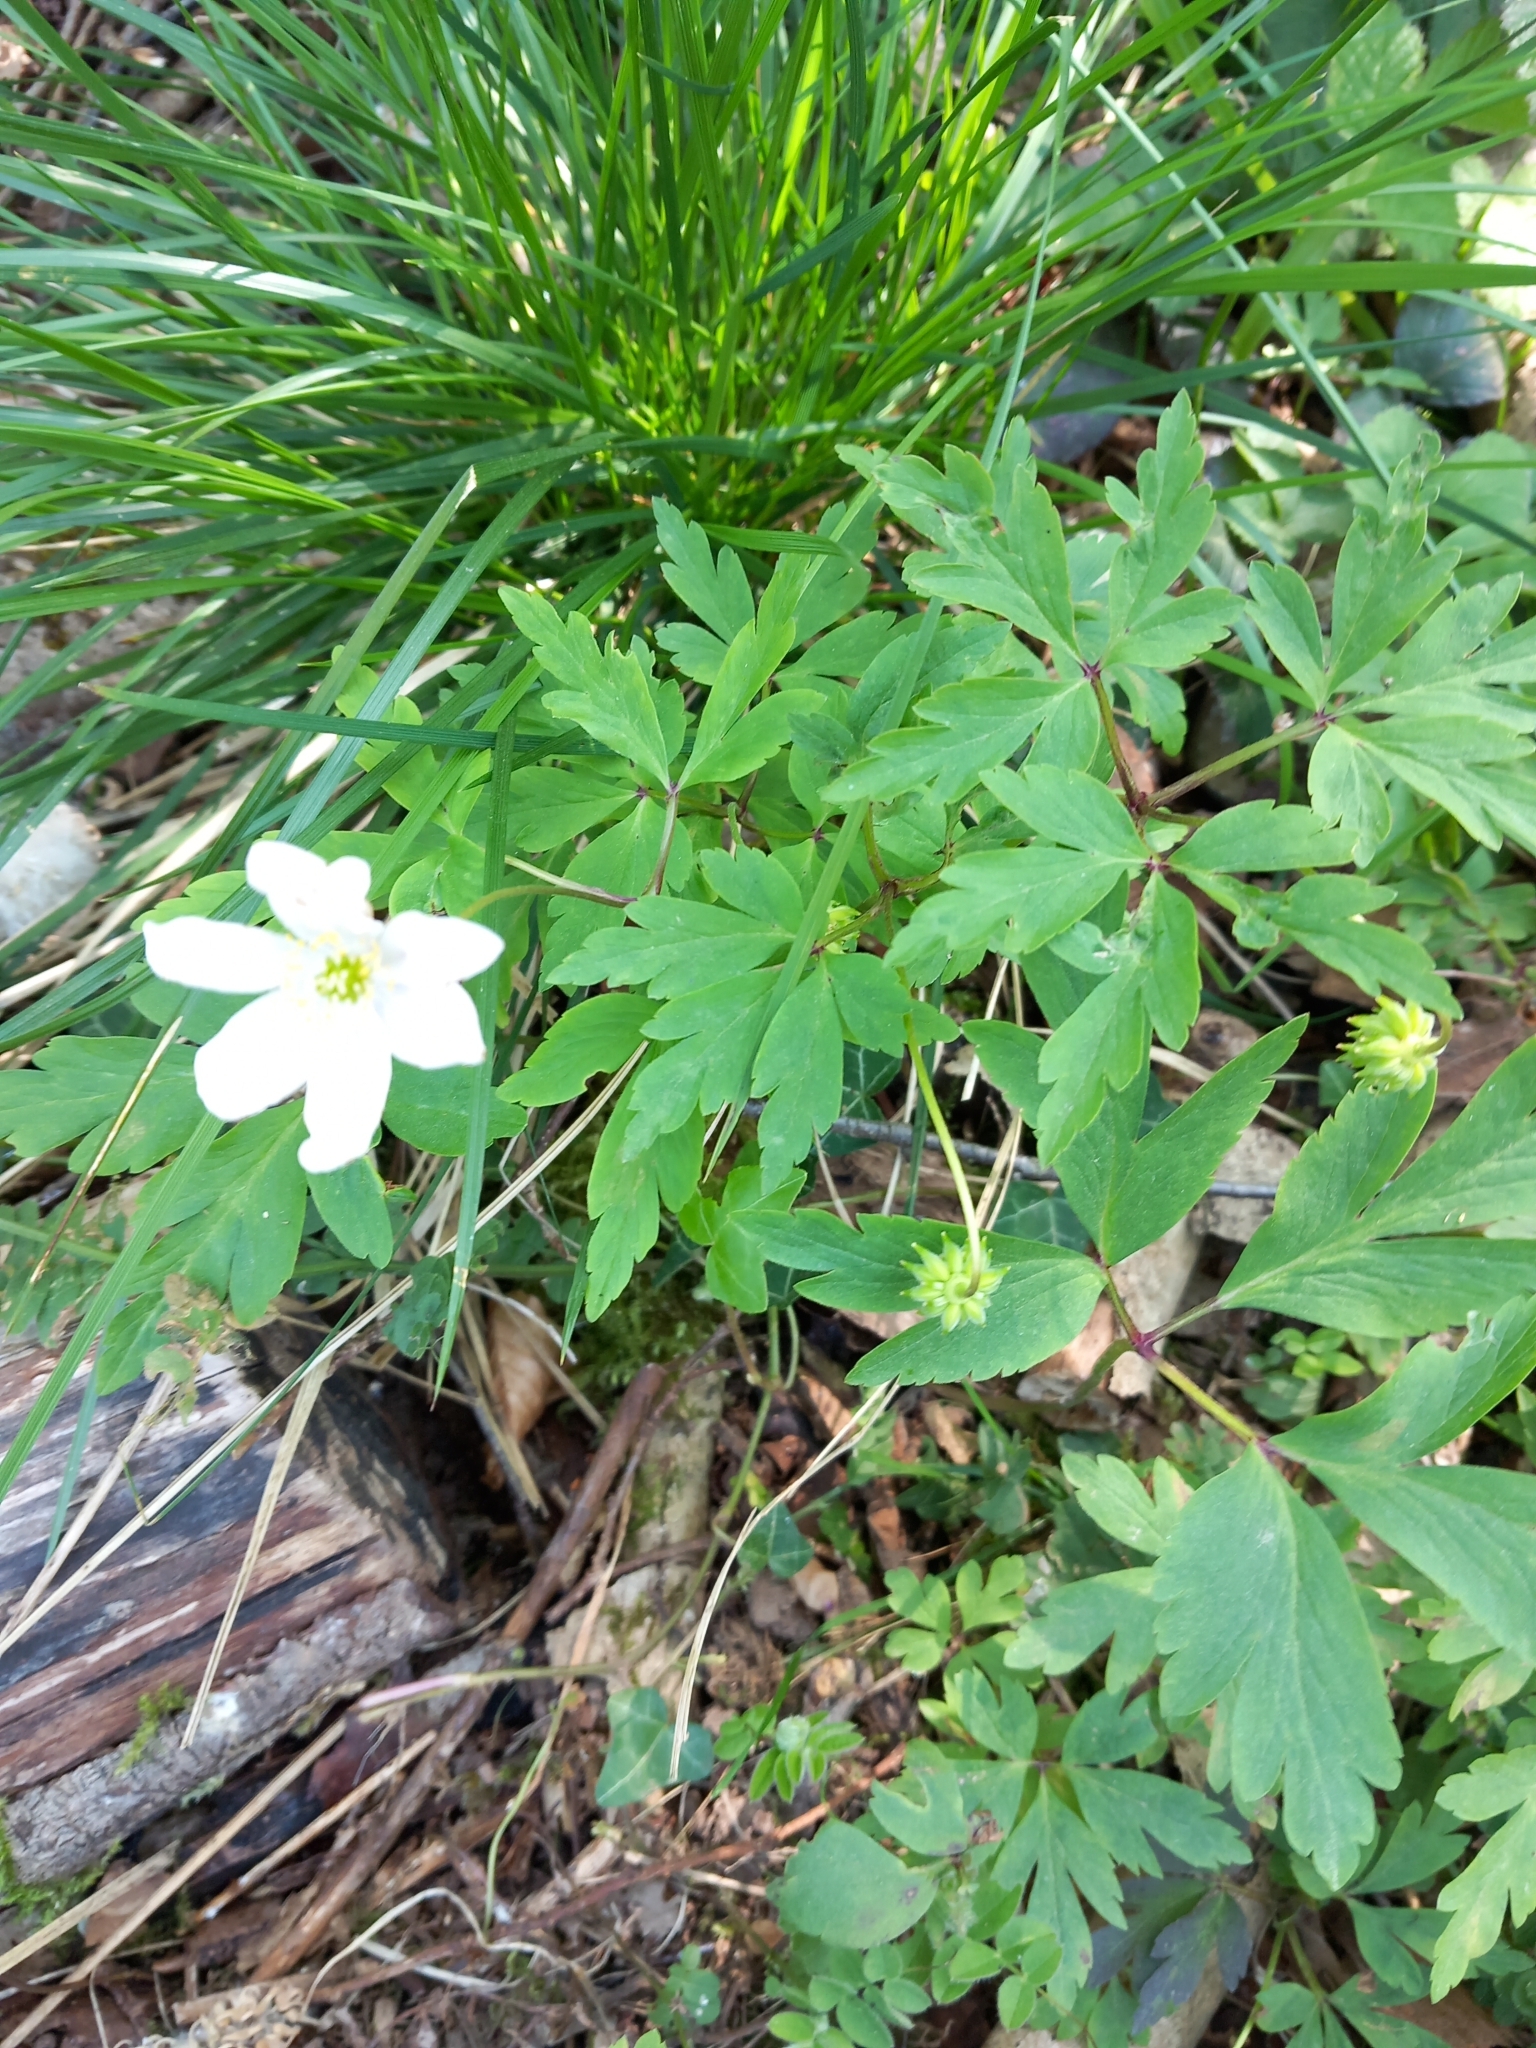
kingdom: Plantae
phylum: Tracheophyta
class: Magnoliopsida
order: Ranunculales
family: Ranunculaceae
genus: Anemone
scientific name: Anemone nemorosa
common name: Wood anemone
